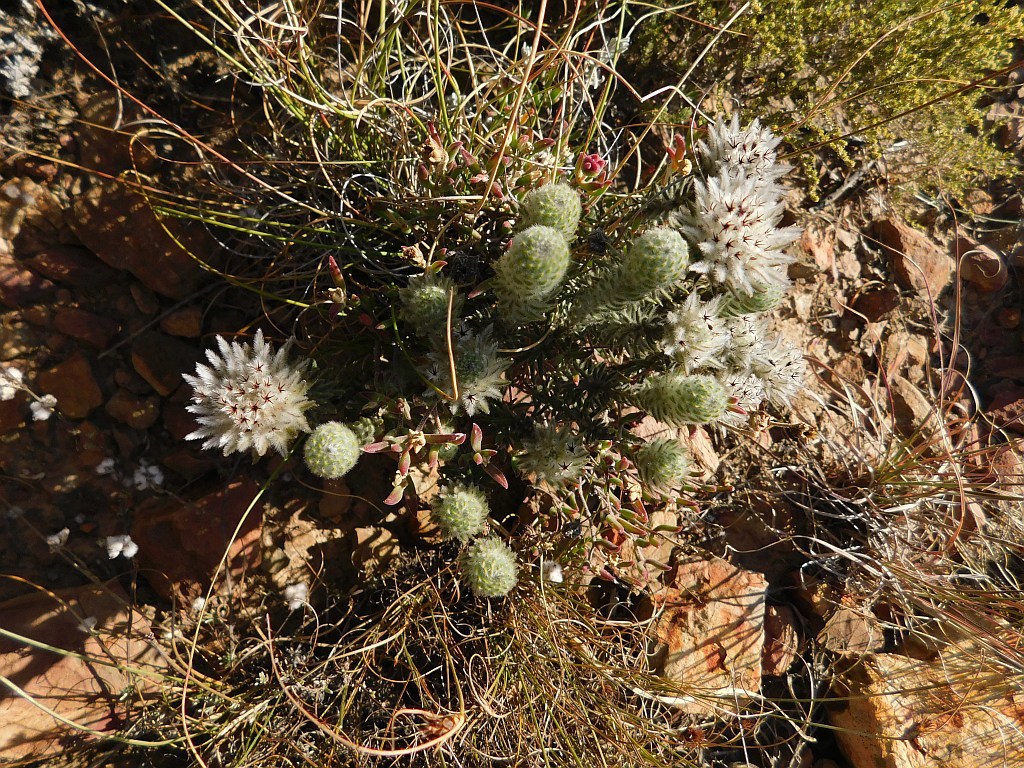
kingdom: Plantae
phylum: Tracheophyta
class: Magnoliopsida
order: Rosales
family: Rhamnaceae
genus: Phylica
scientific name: Phylica calcarata
